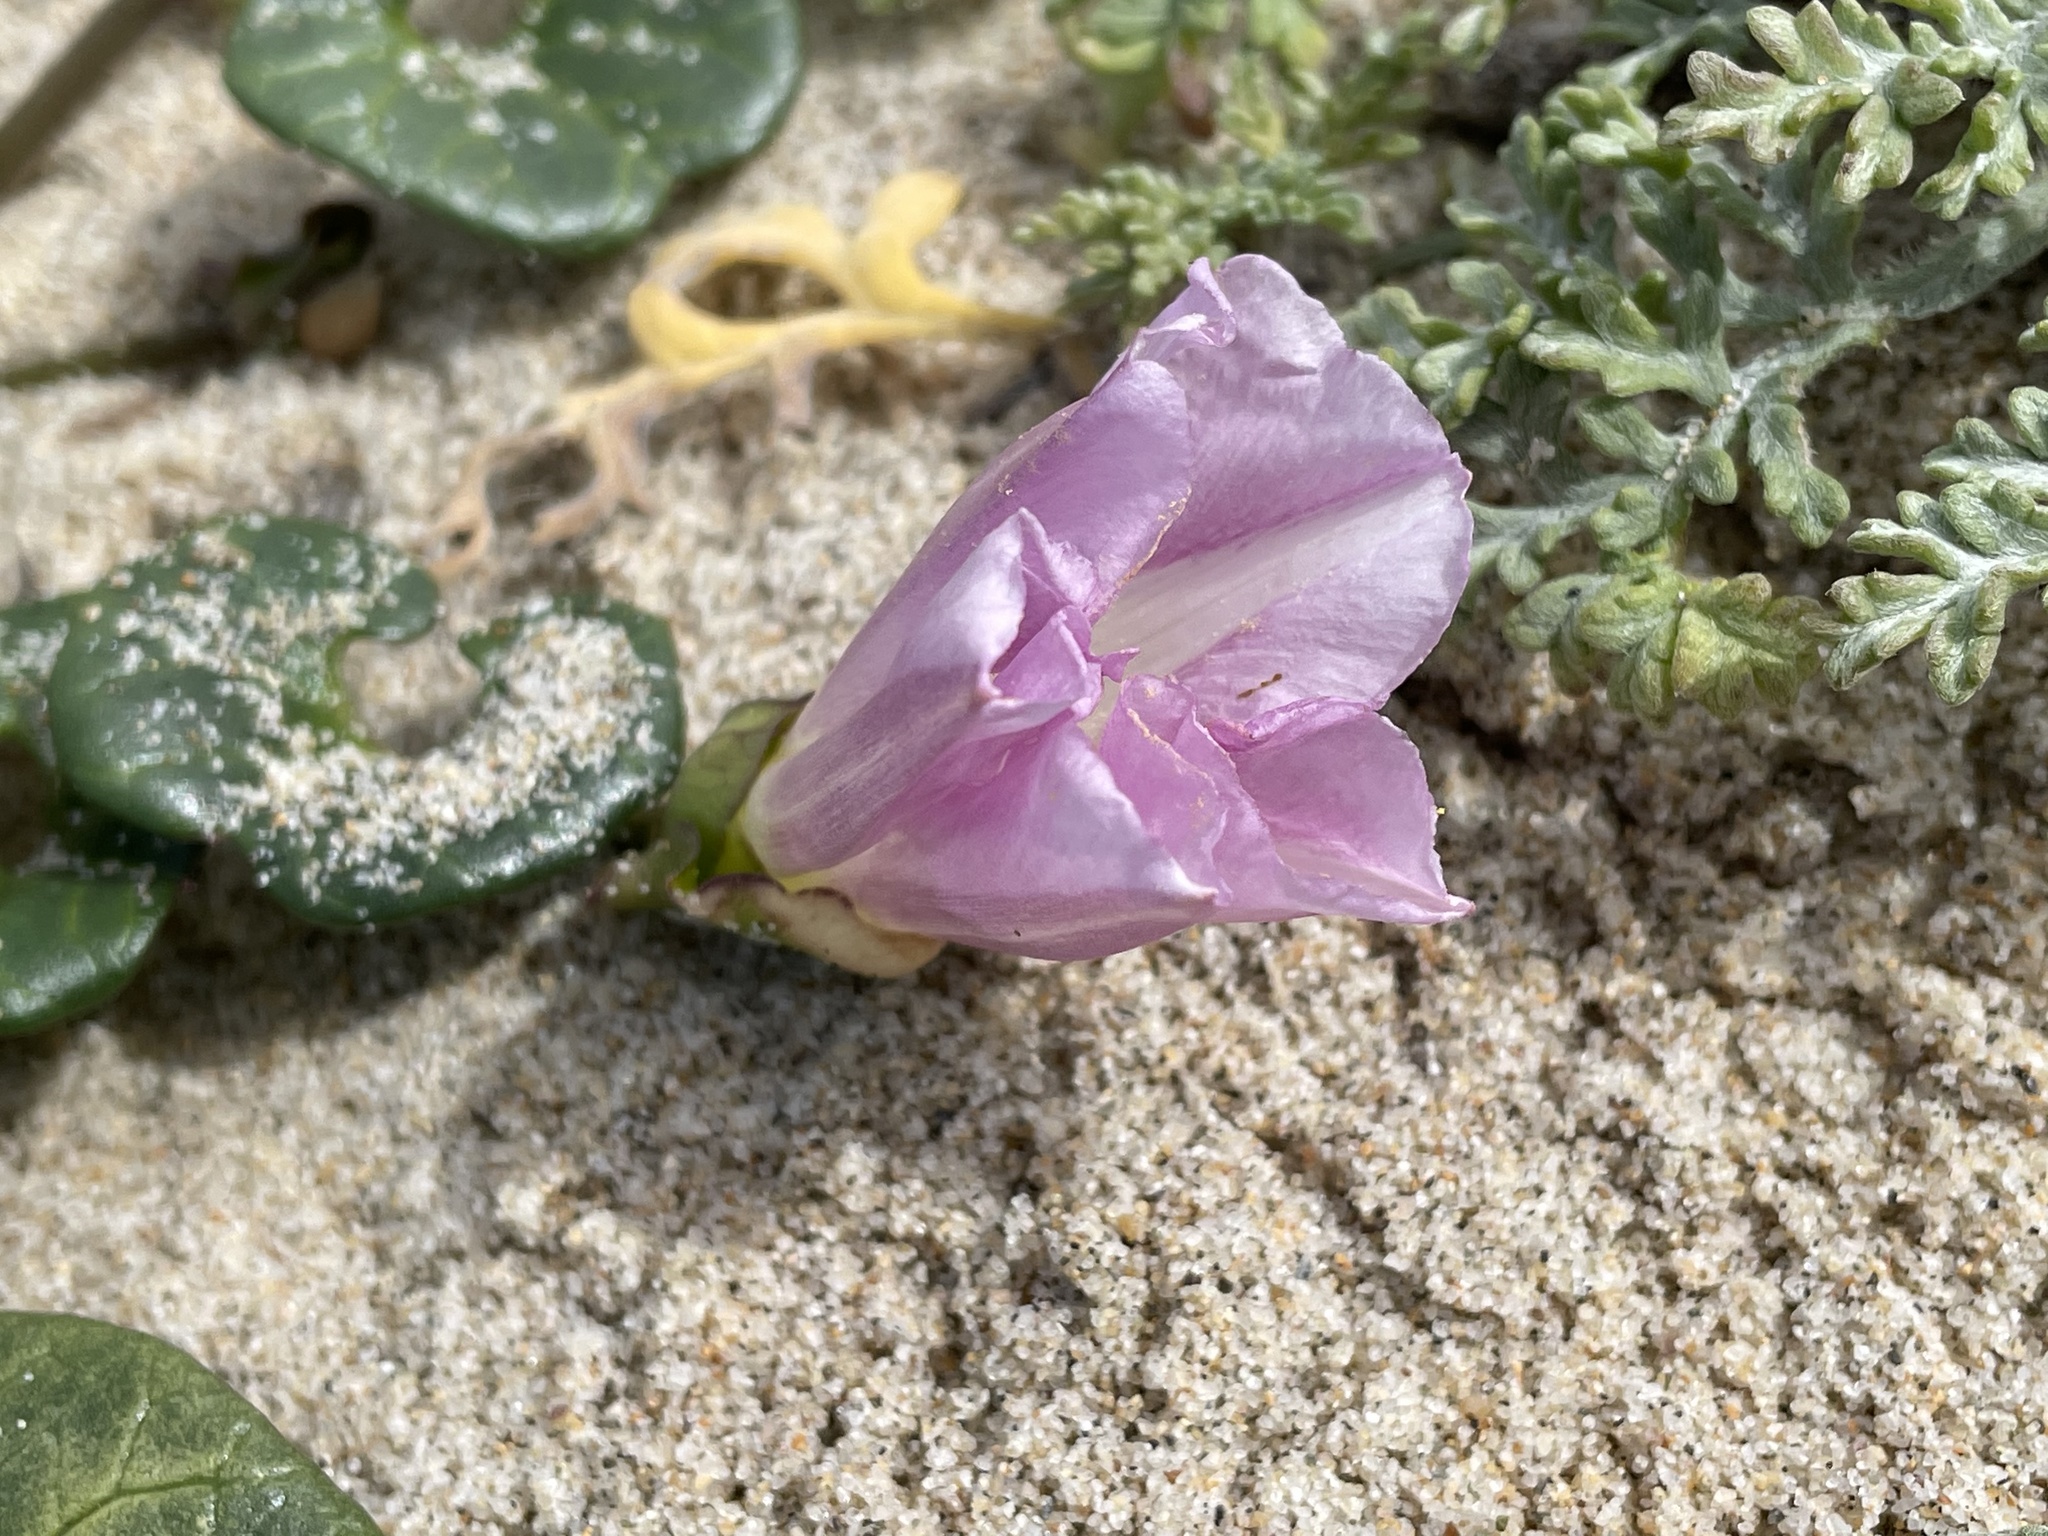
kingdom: Plantae
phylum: Tracheophyta
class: Magnoliopsida
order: Solanales
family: Convolvulaceae
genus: Calystegia
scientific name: Calystegia soldanella
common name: Sea bindweed
